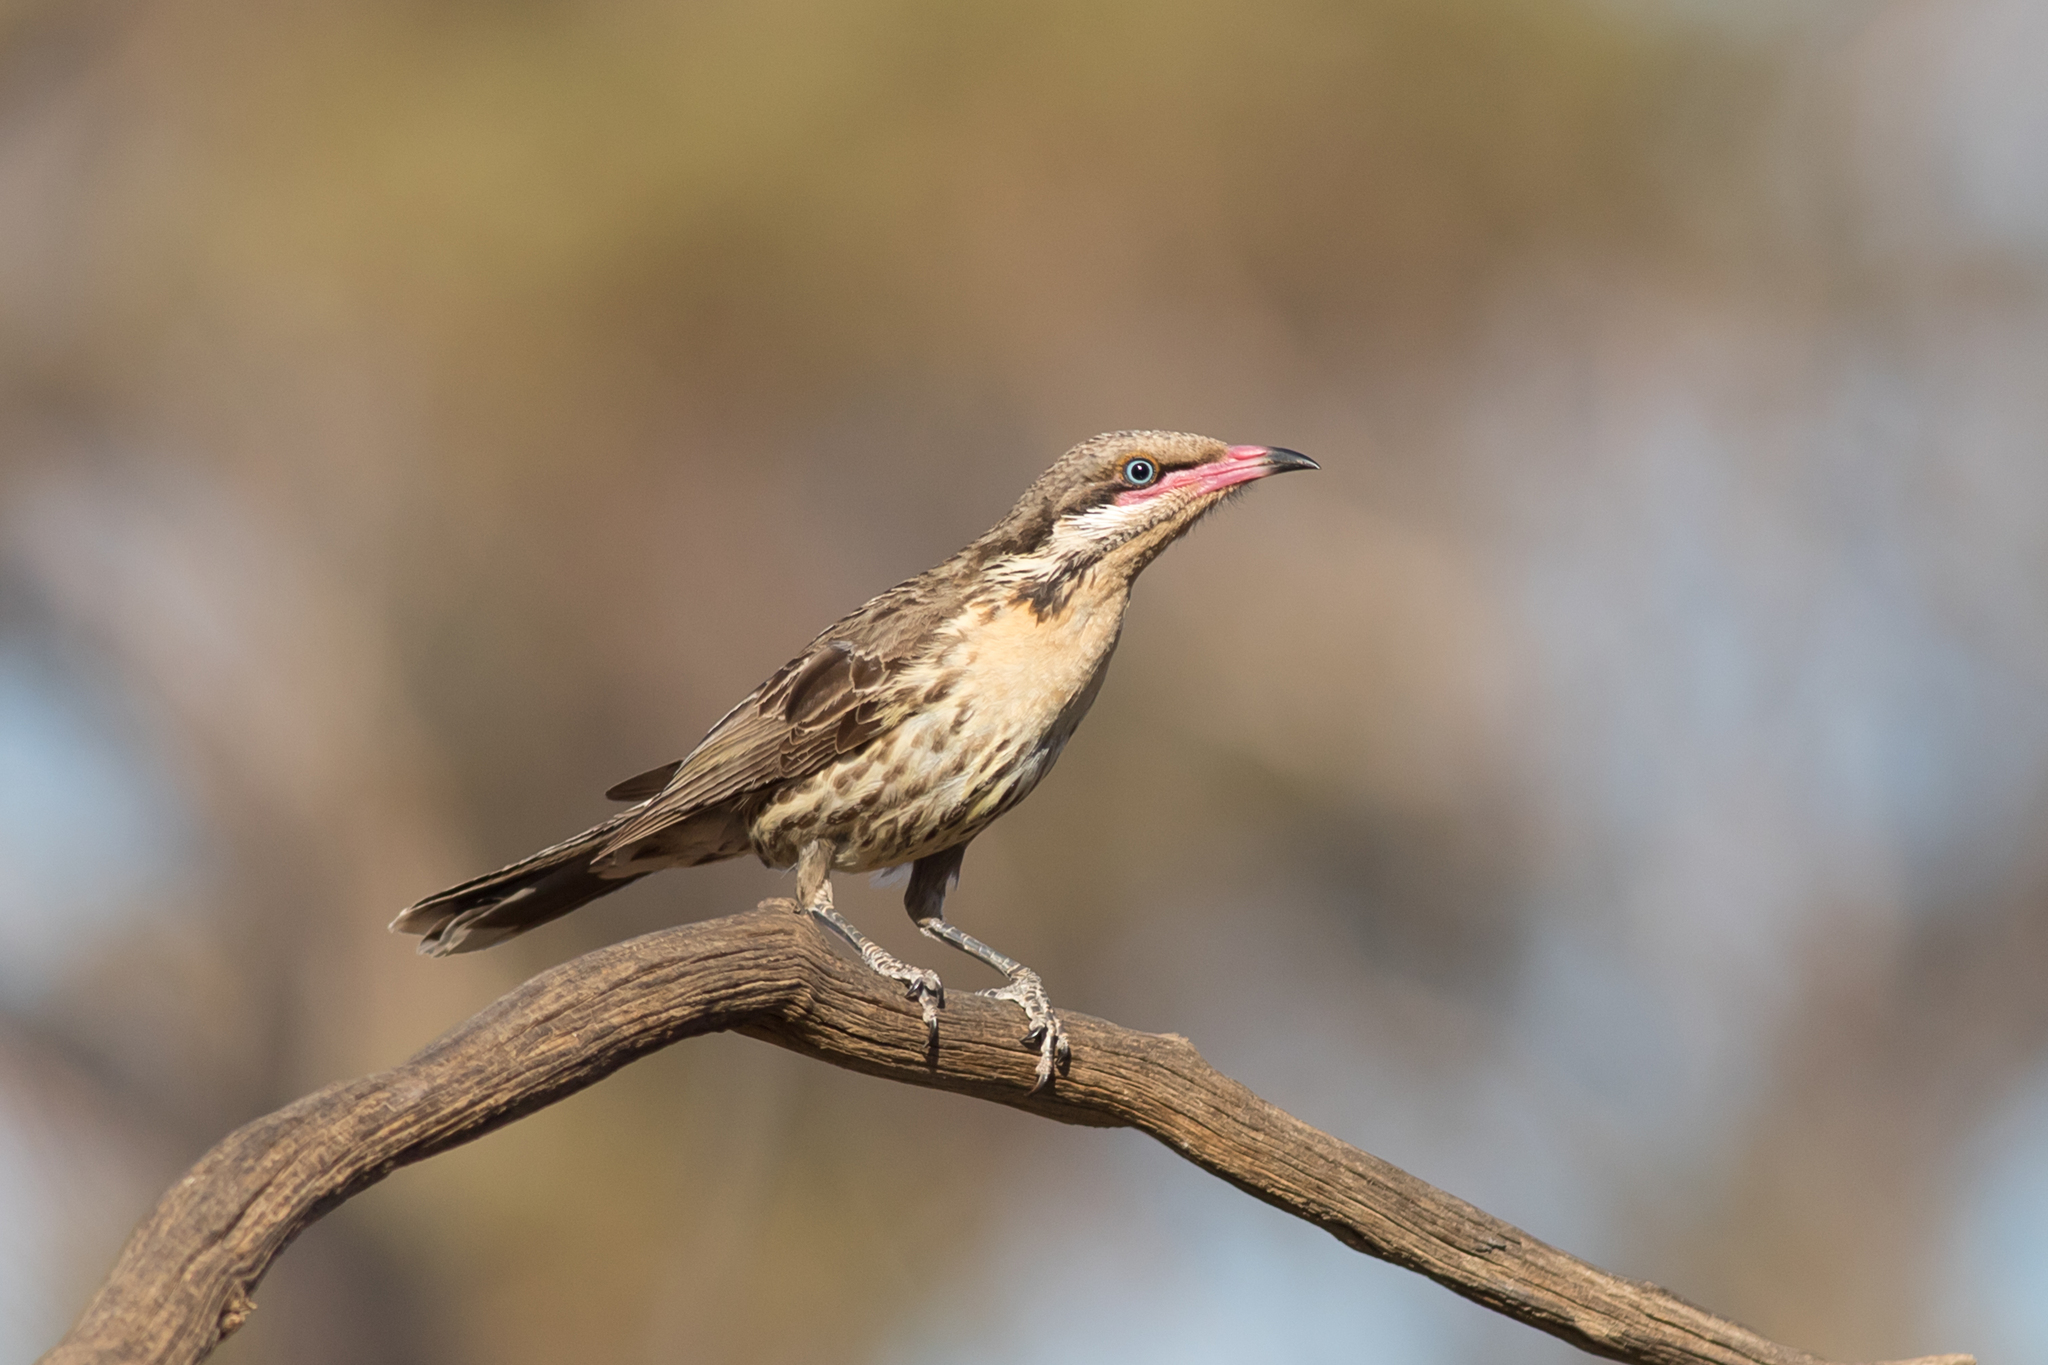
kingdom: Animalia
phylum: Chordata
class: Aves
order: Passeriformes
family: Meliphagidae
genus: Acanthagenys
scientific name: Acanthagenys rufogularis
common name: Spiny-cheeked honeyeater
